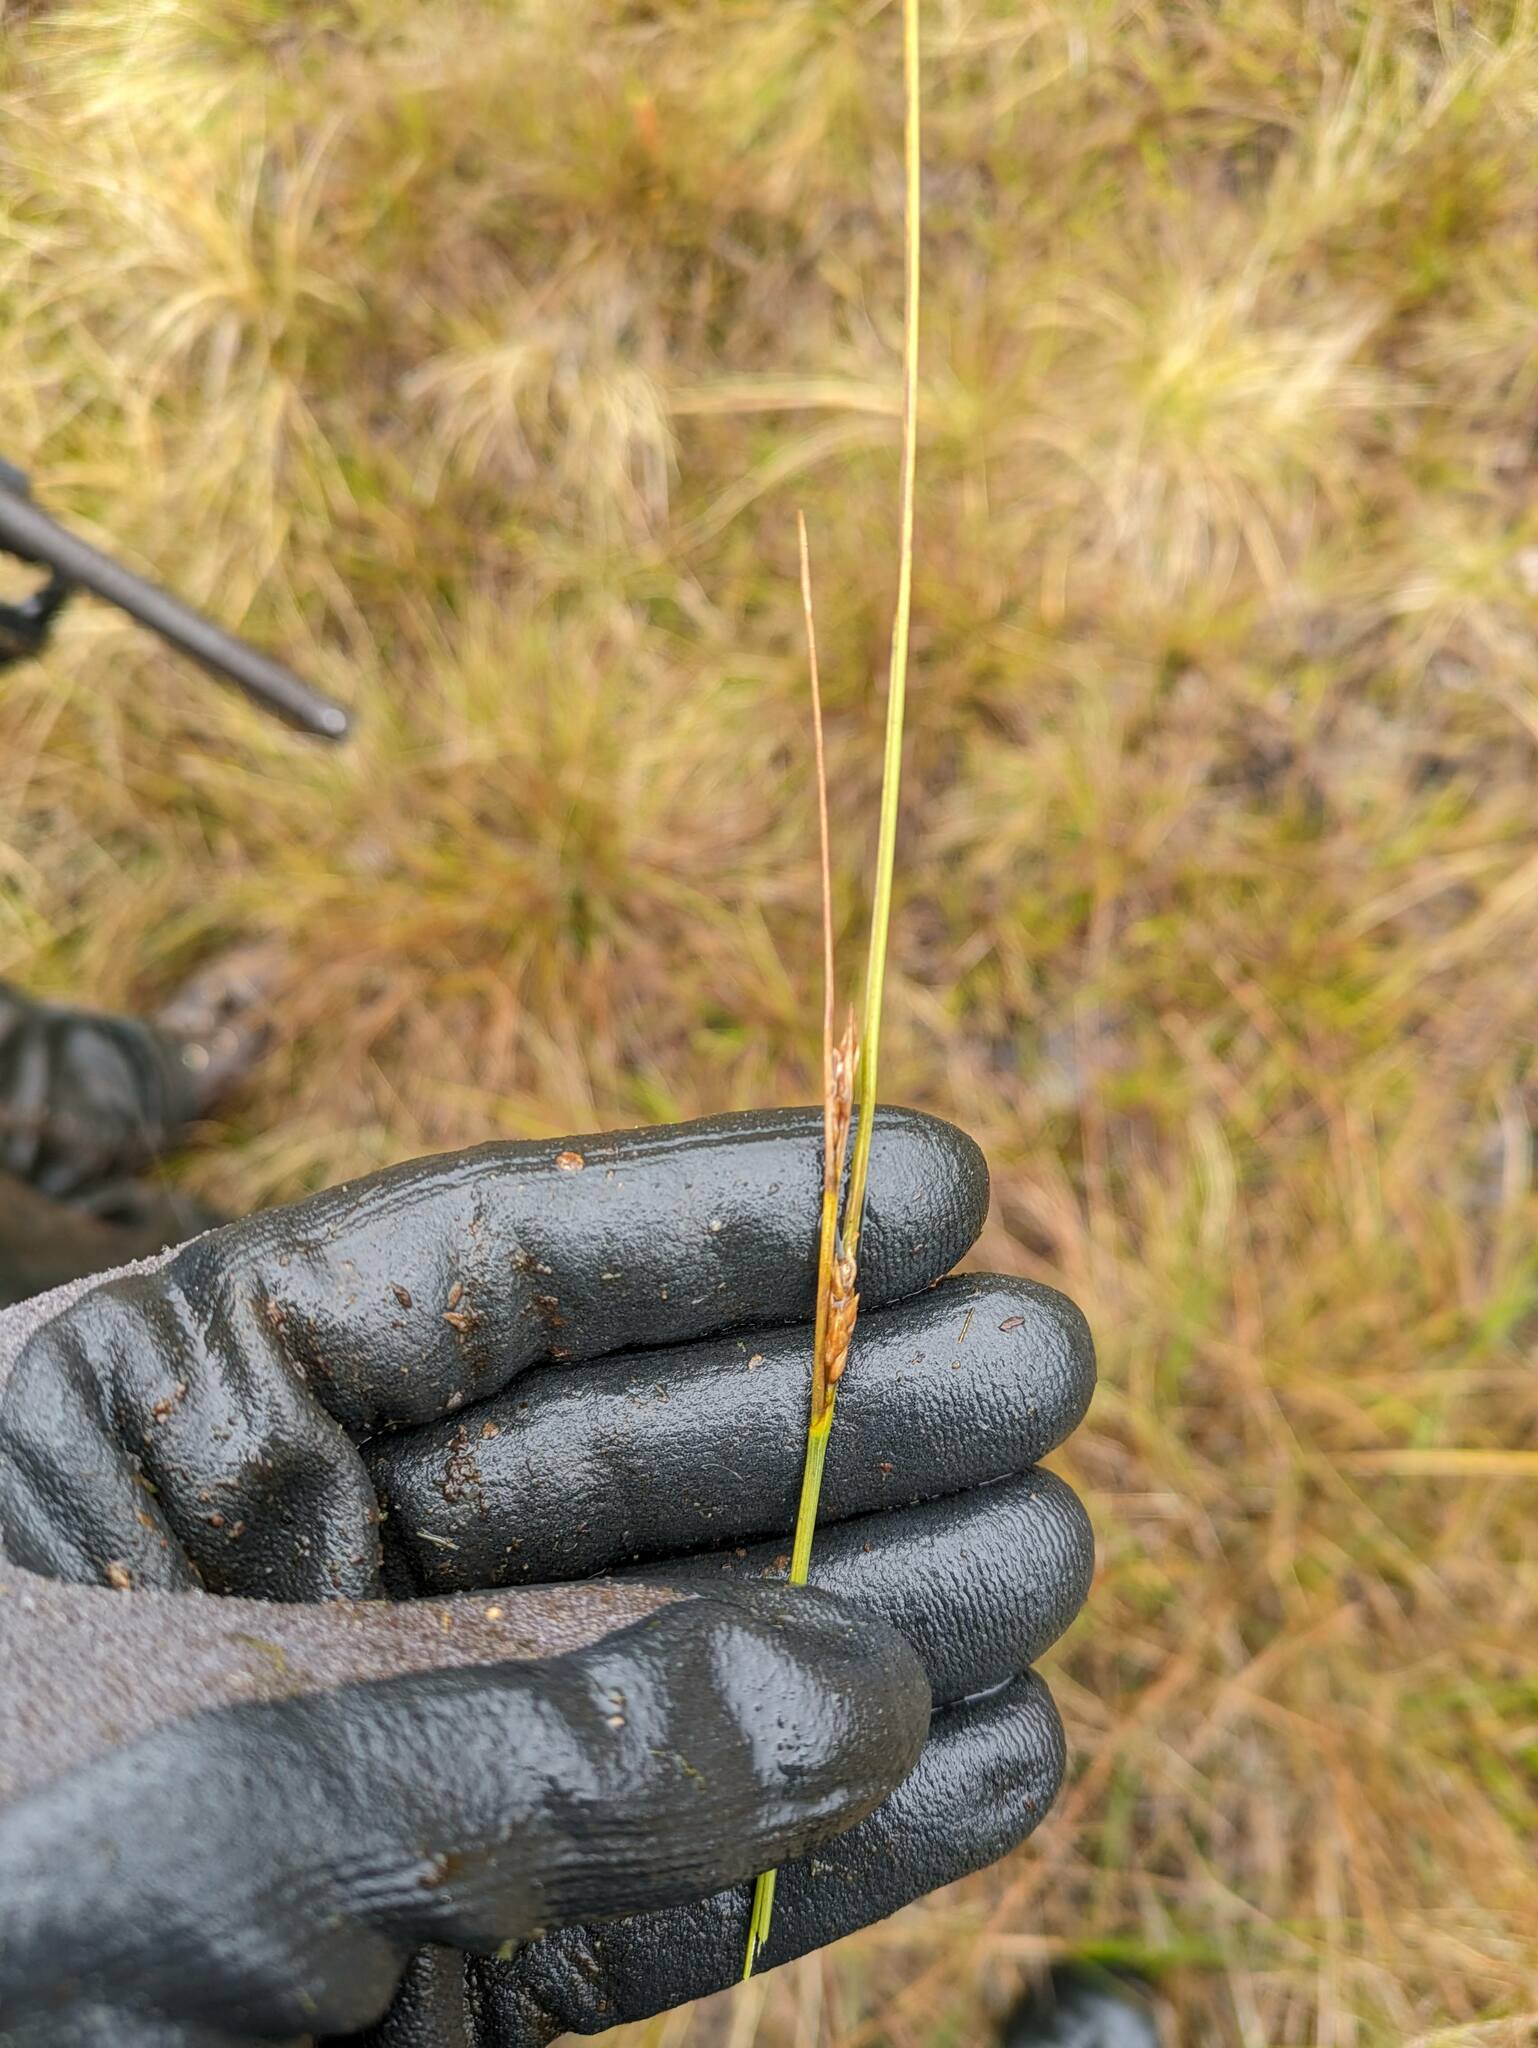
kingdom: Plantae
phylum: Tracheophyta
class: Liliopsida
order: Poales
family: Cyperaceae
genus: Carex
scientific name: Carex montis-eeka
